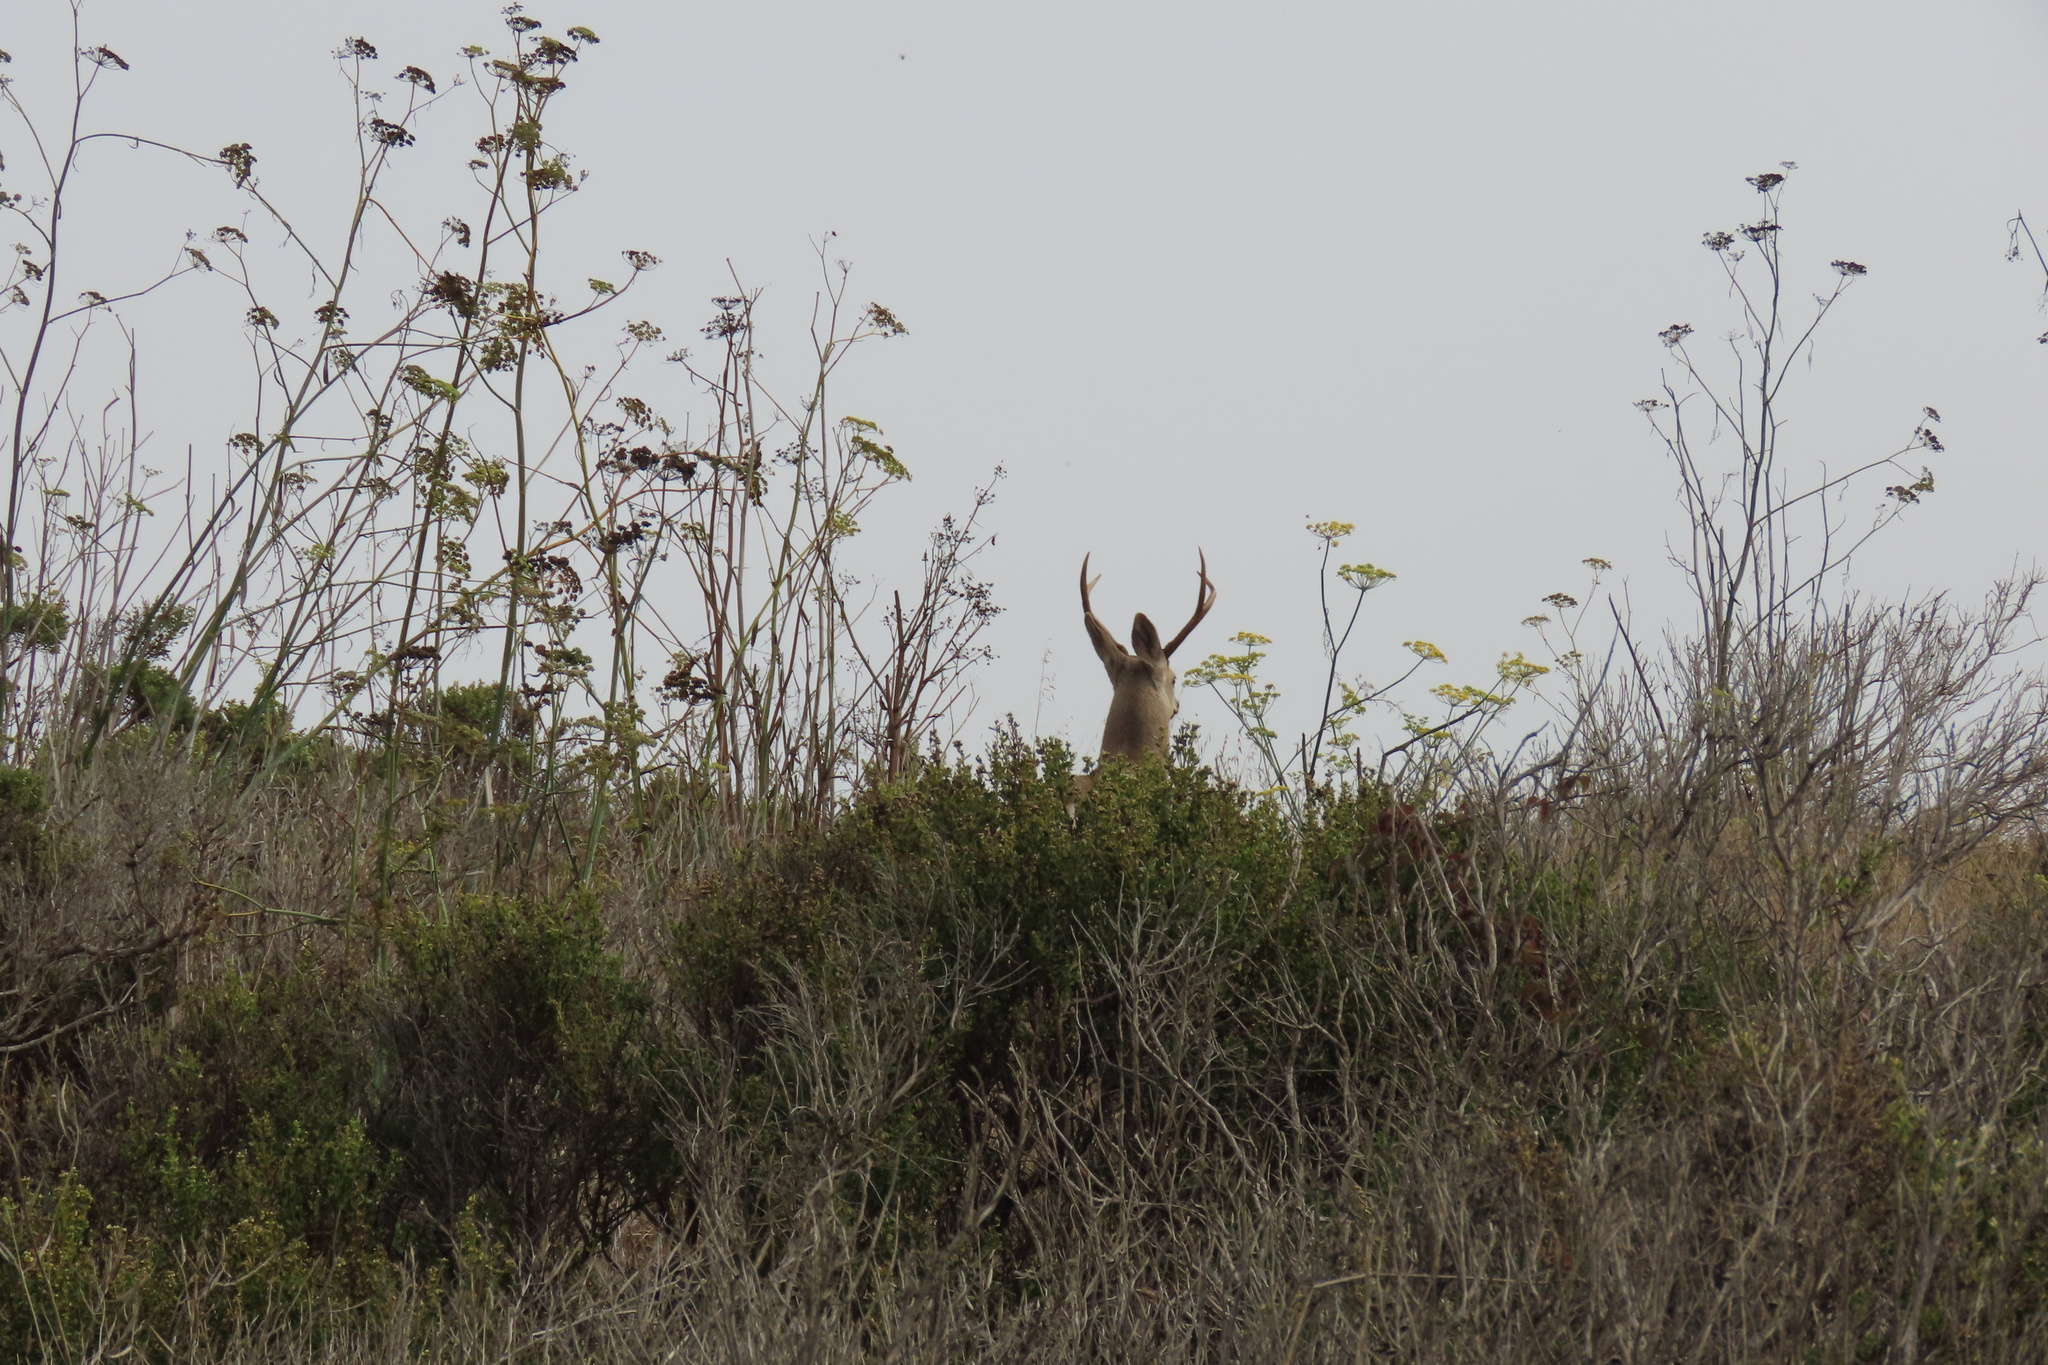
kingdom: Animalia
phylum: Chordata
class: Mammalia
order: Artiodactyla
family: Cervidae
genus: Odocoileus
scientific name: Odocoileus hemionus
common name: Mule deer
